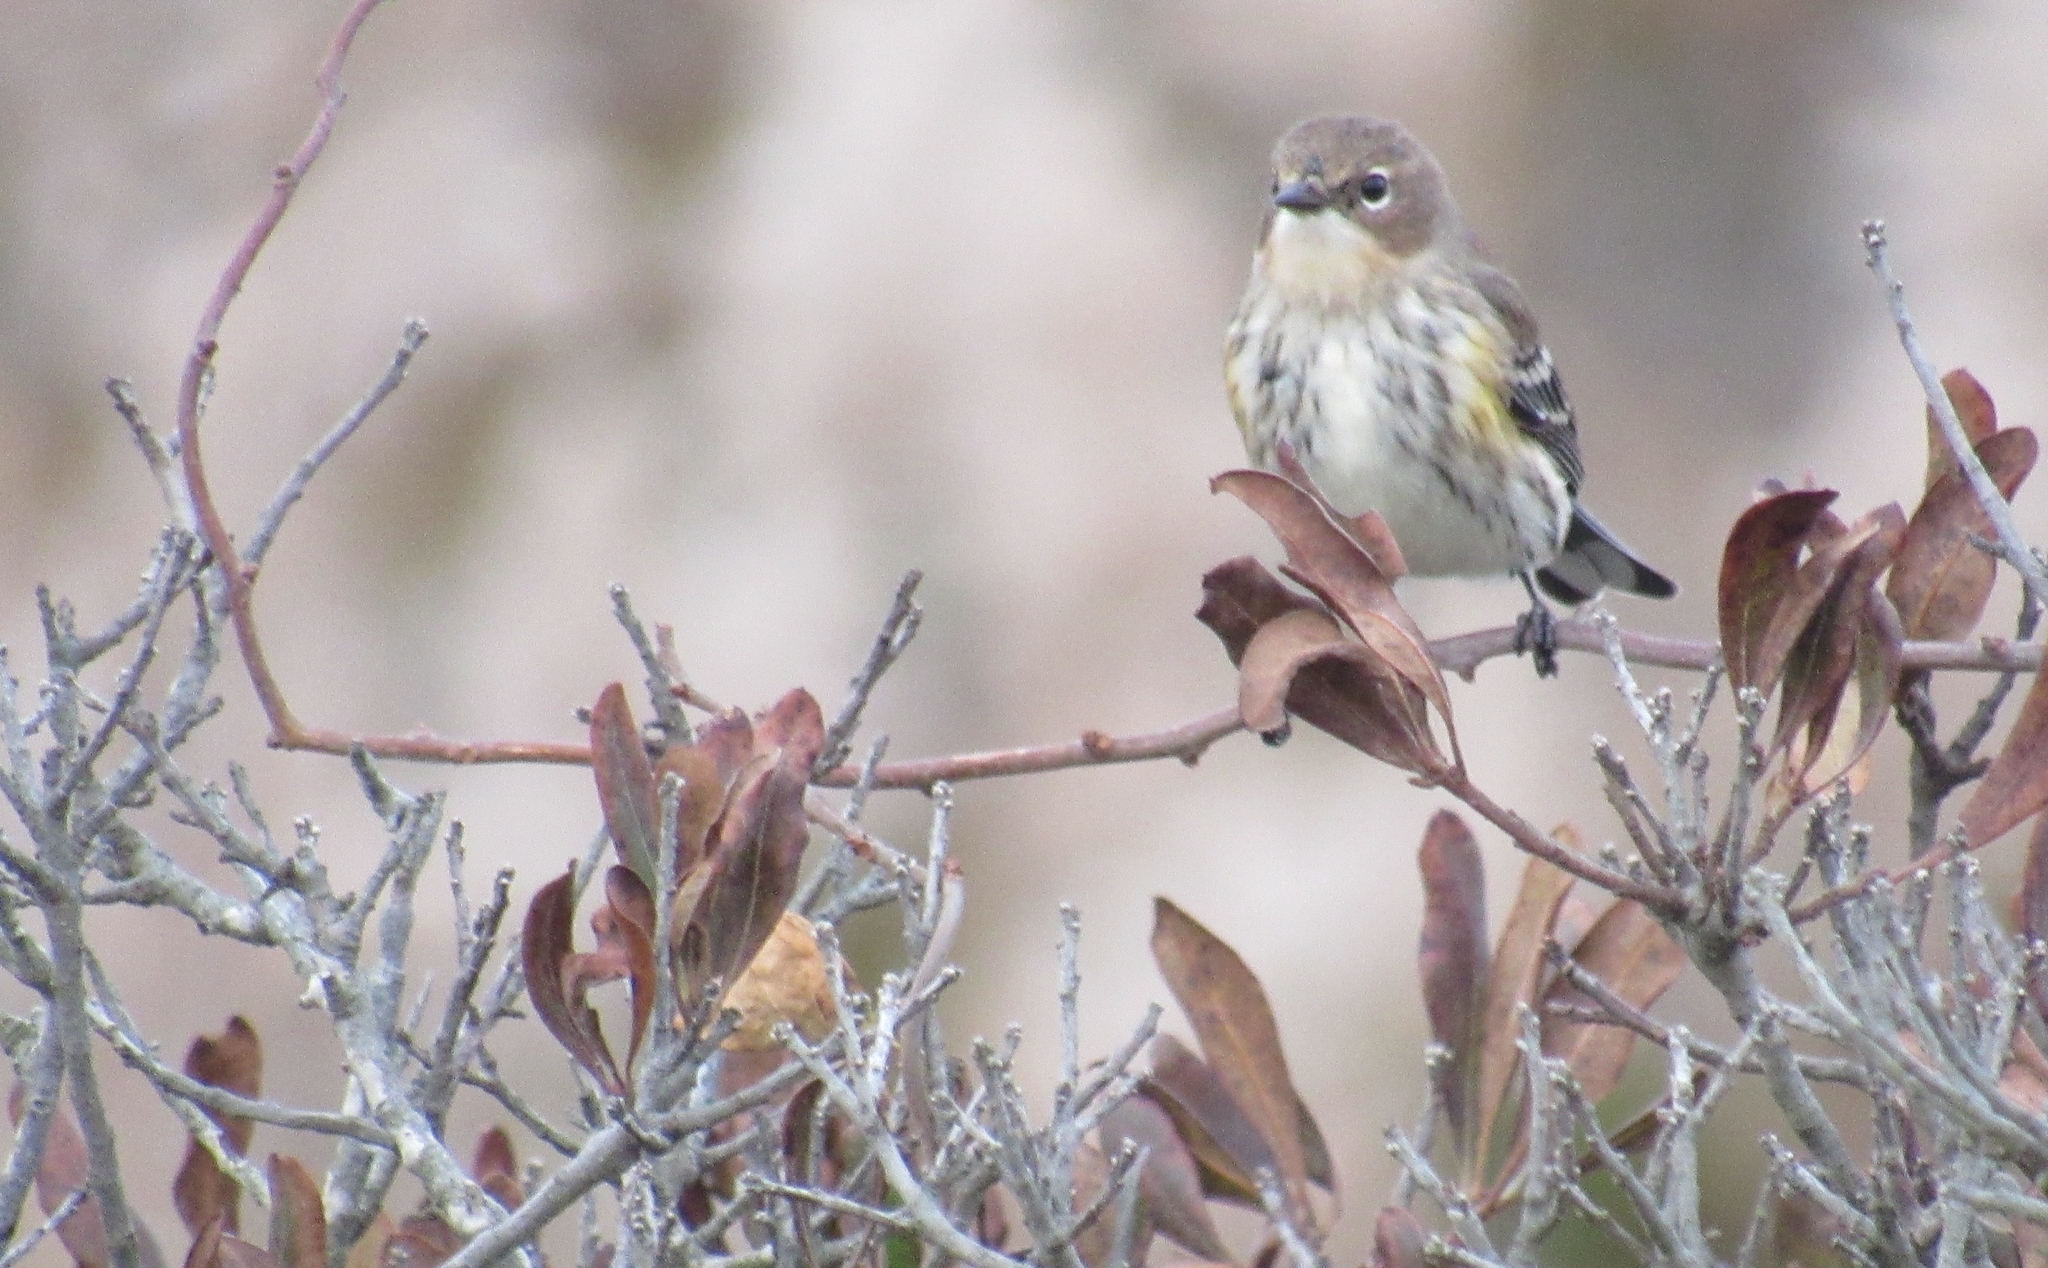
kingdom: Animalia
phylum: Chordata
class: Aves
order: Passeriformes
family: Parulidae
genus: Setophaga
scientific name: Setophaga coronata
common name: Myrtle warbler
